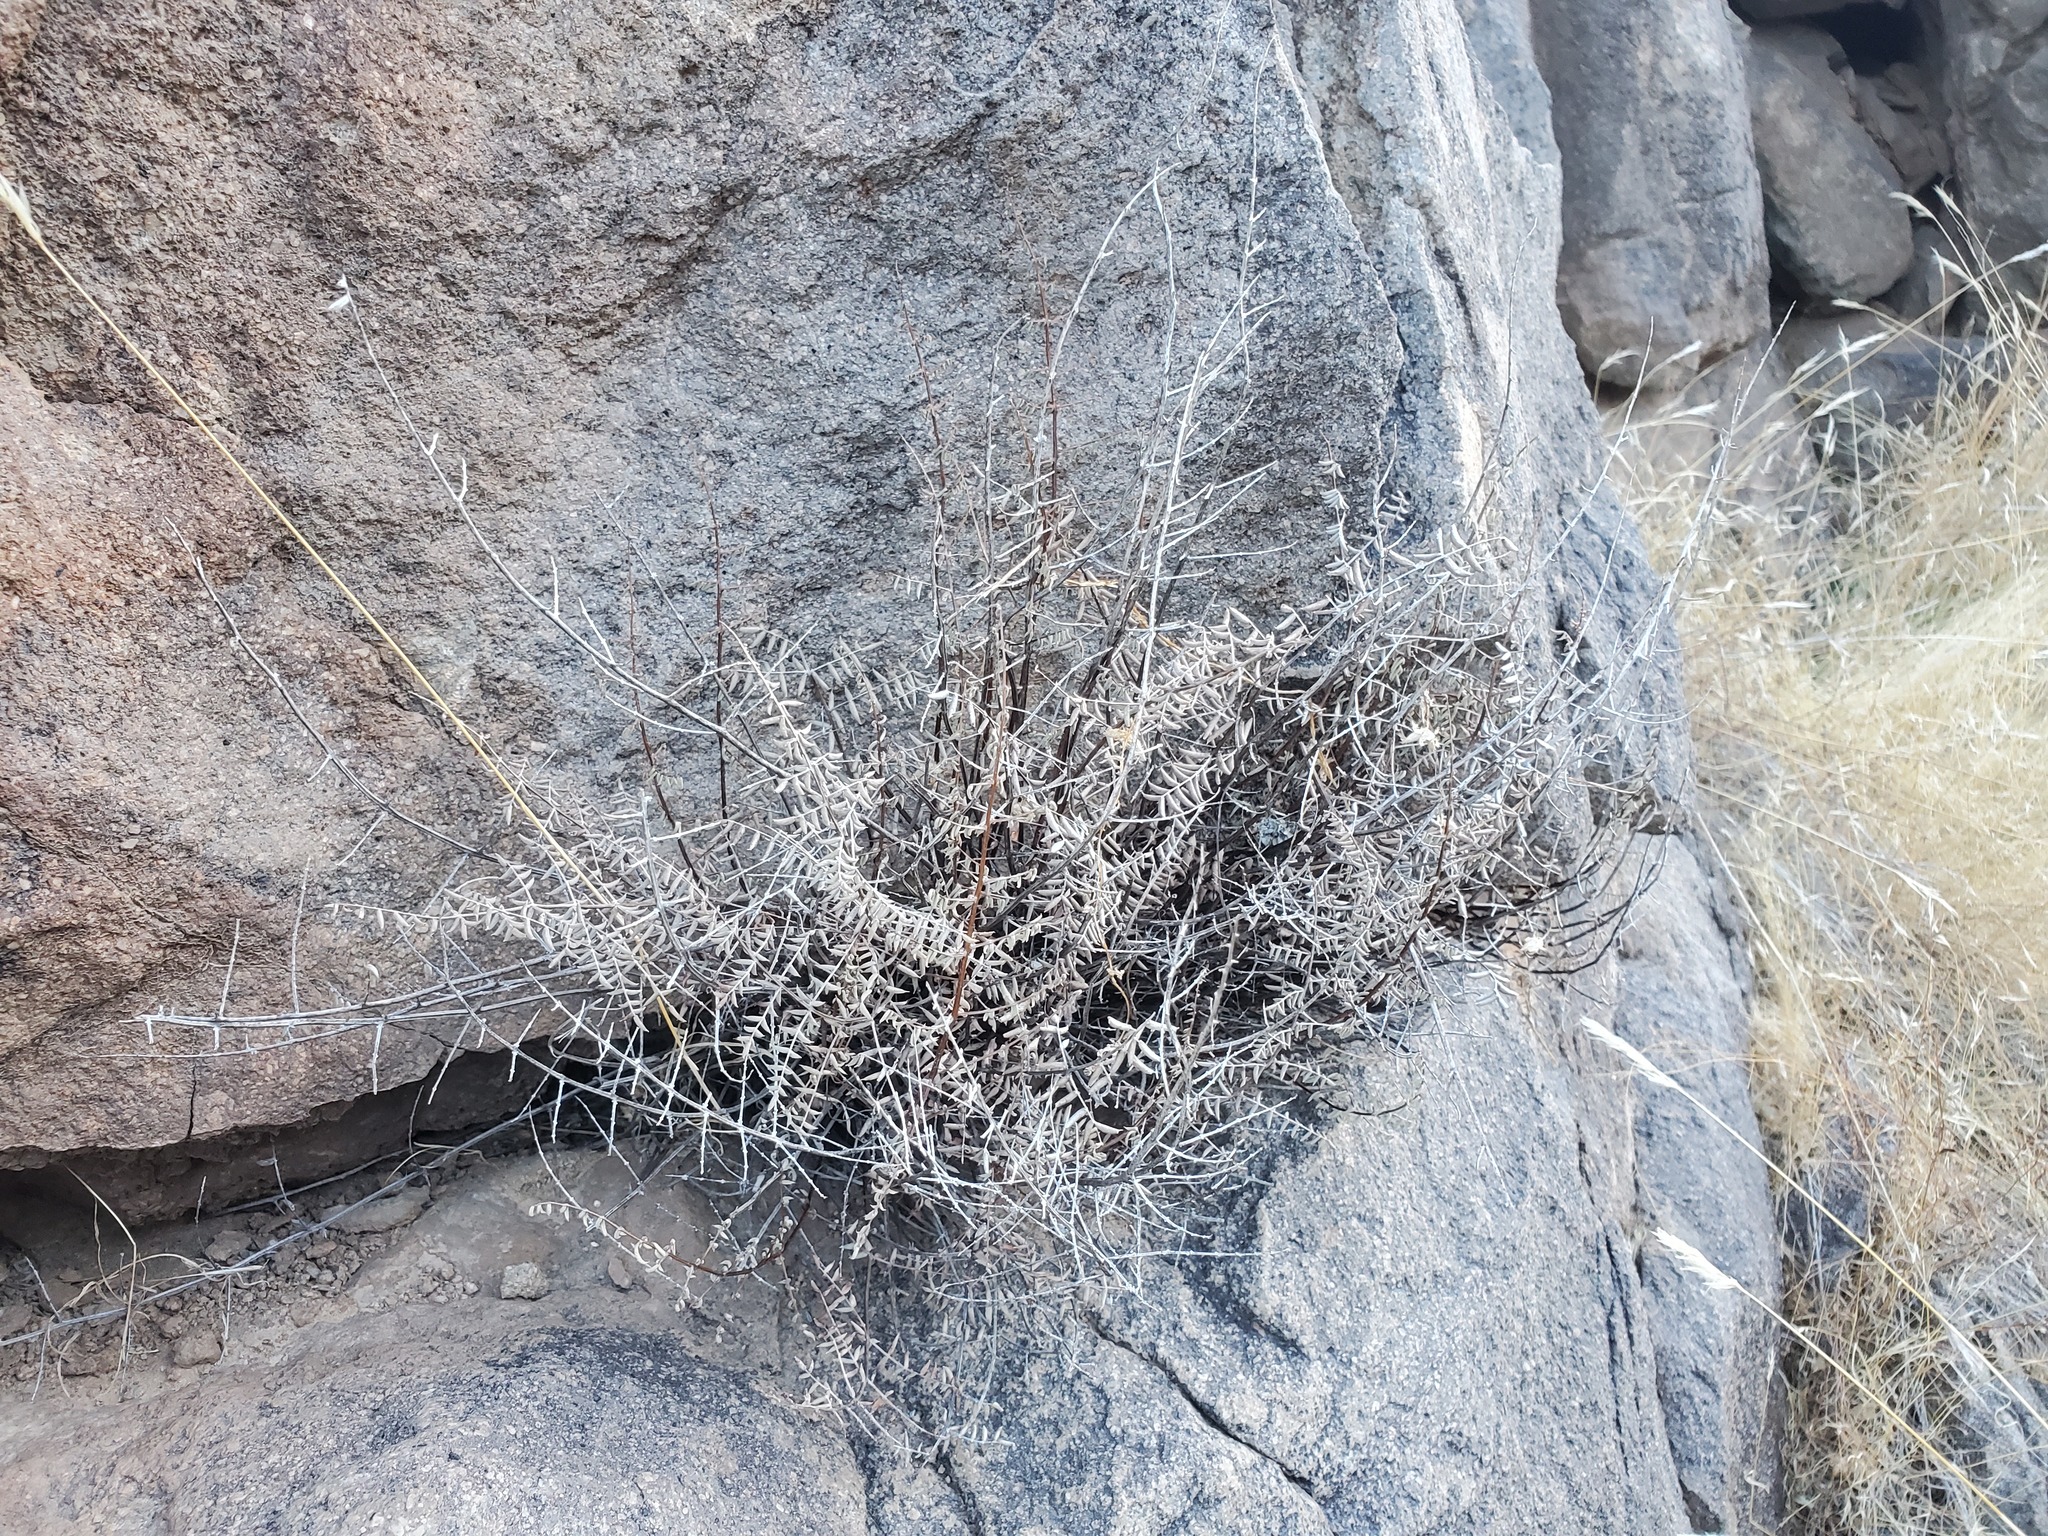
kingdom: Plantae
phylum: Tracheophyta
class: Polypodiopsida
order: Polypodiales
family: Pteridaceae
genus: Pellaea
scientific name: Pellaea truncata
